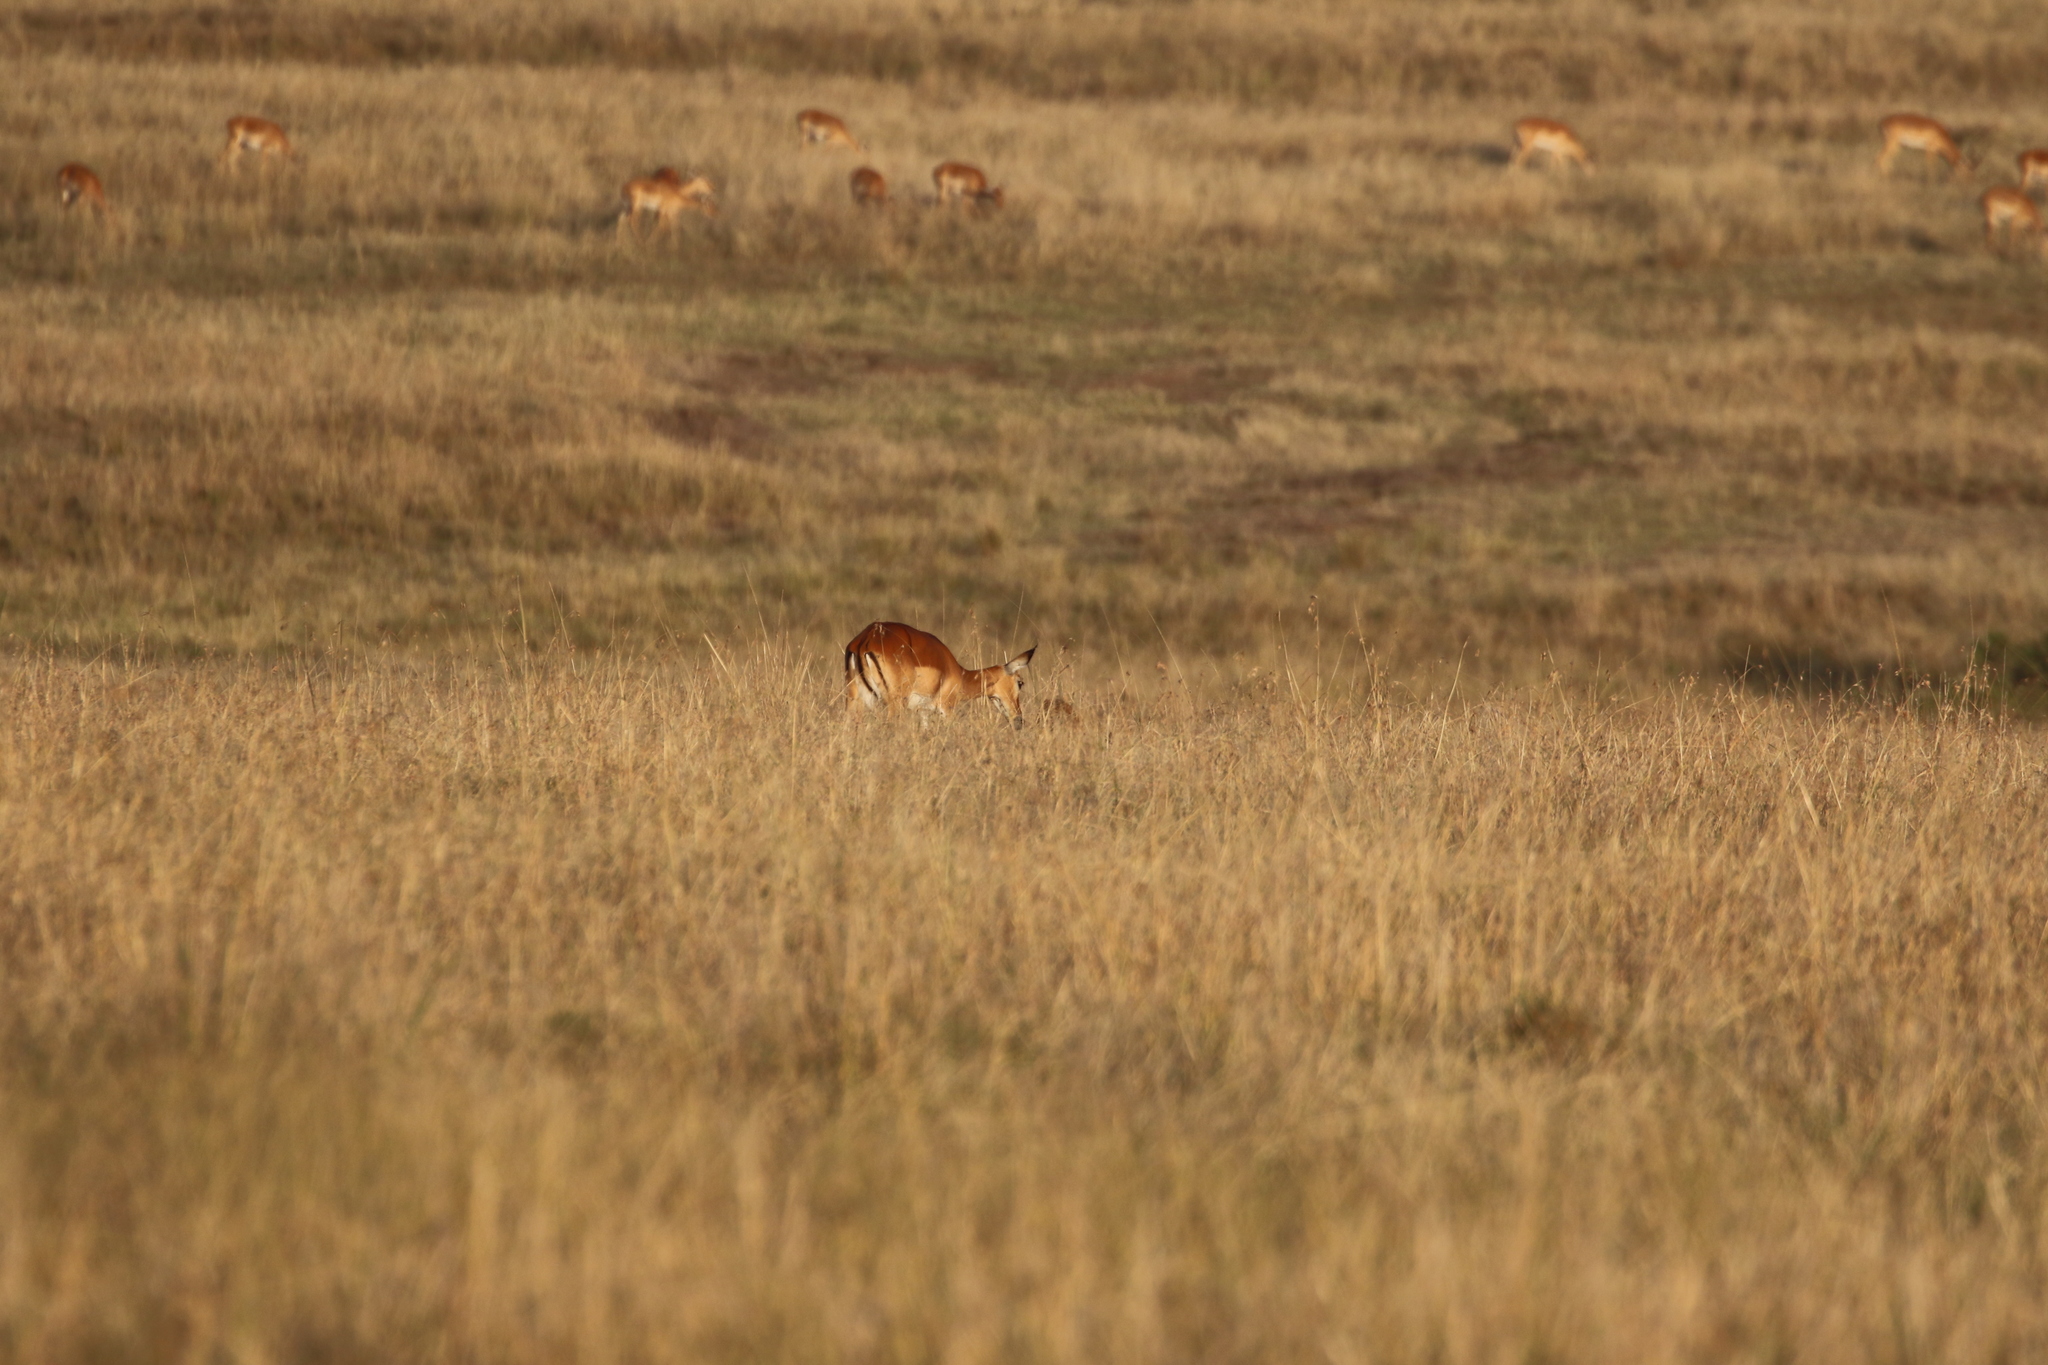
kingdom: Animalia
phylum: Chordata
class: Mammalia
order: Artiodactyla
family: Bovidae
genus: Aepyceros
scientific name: Aepyceros melampus
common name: Impala
